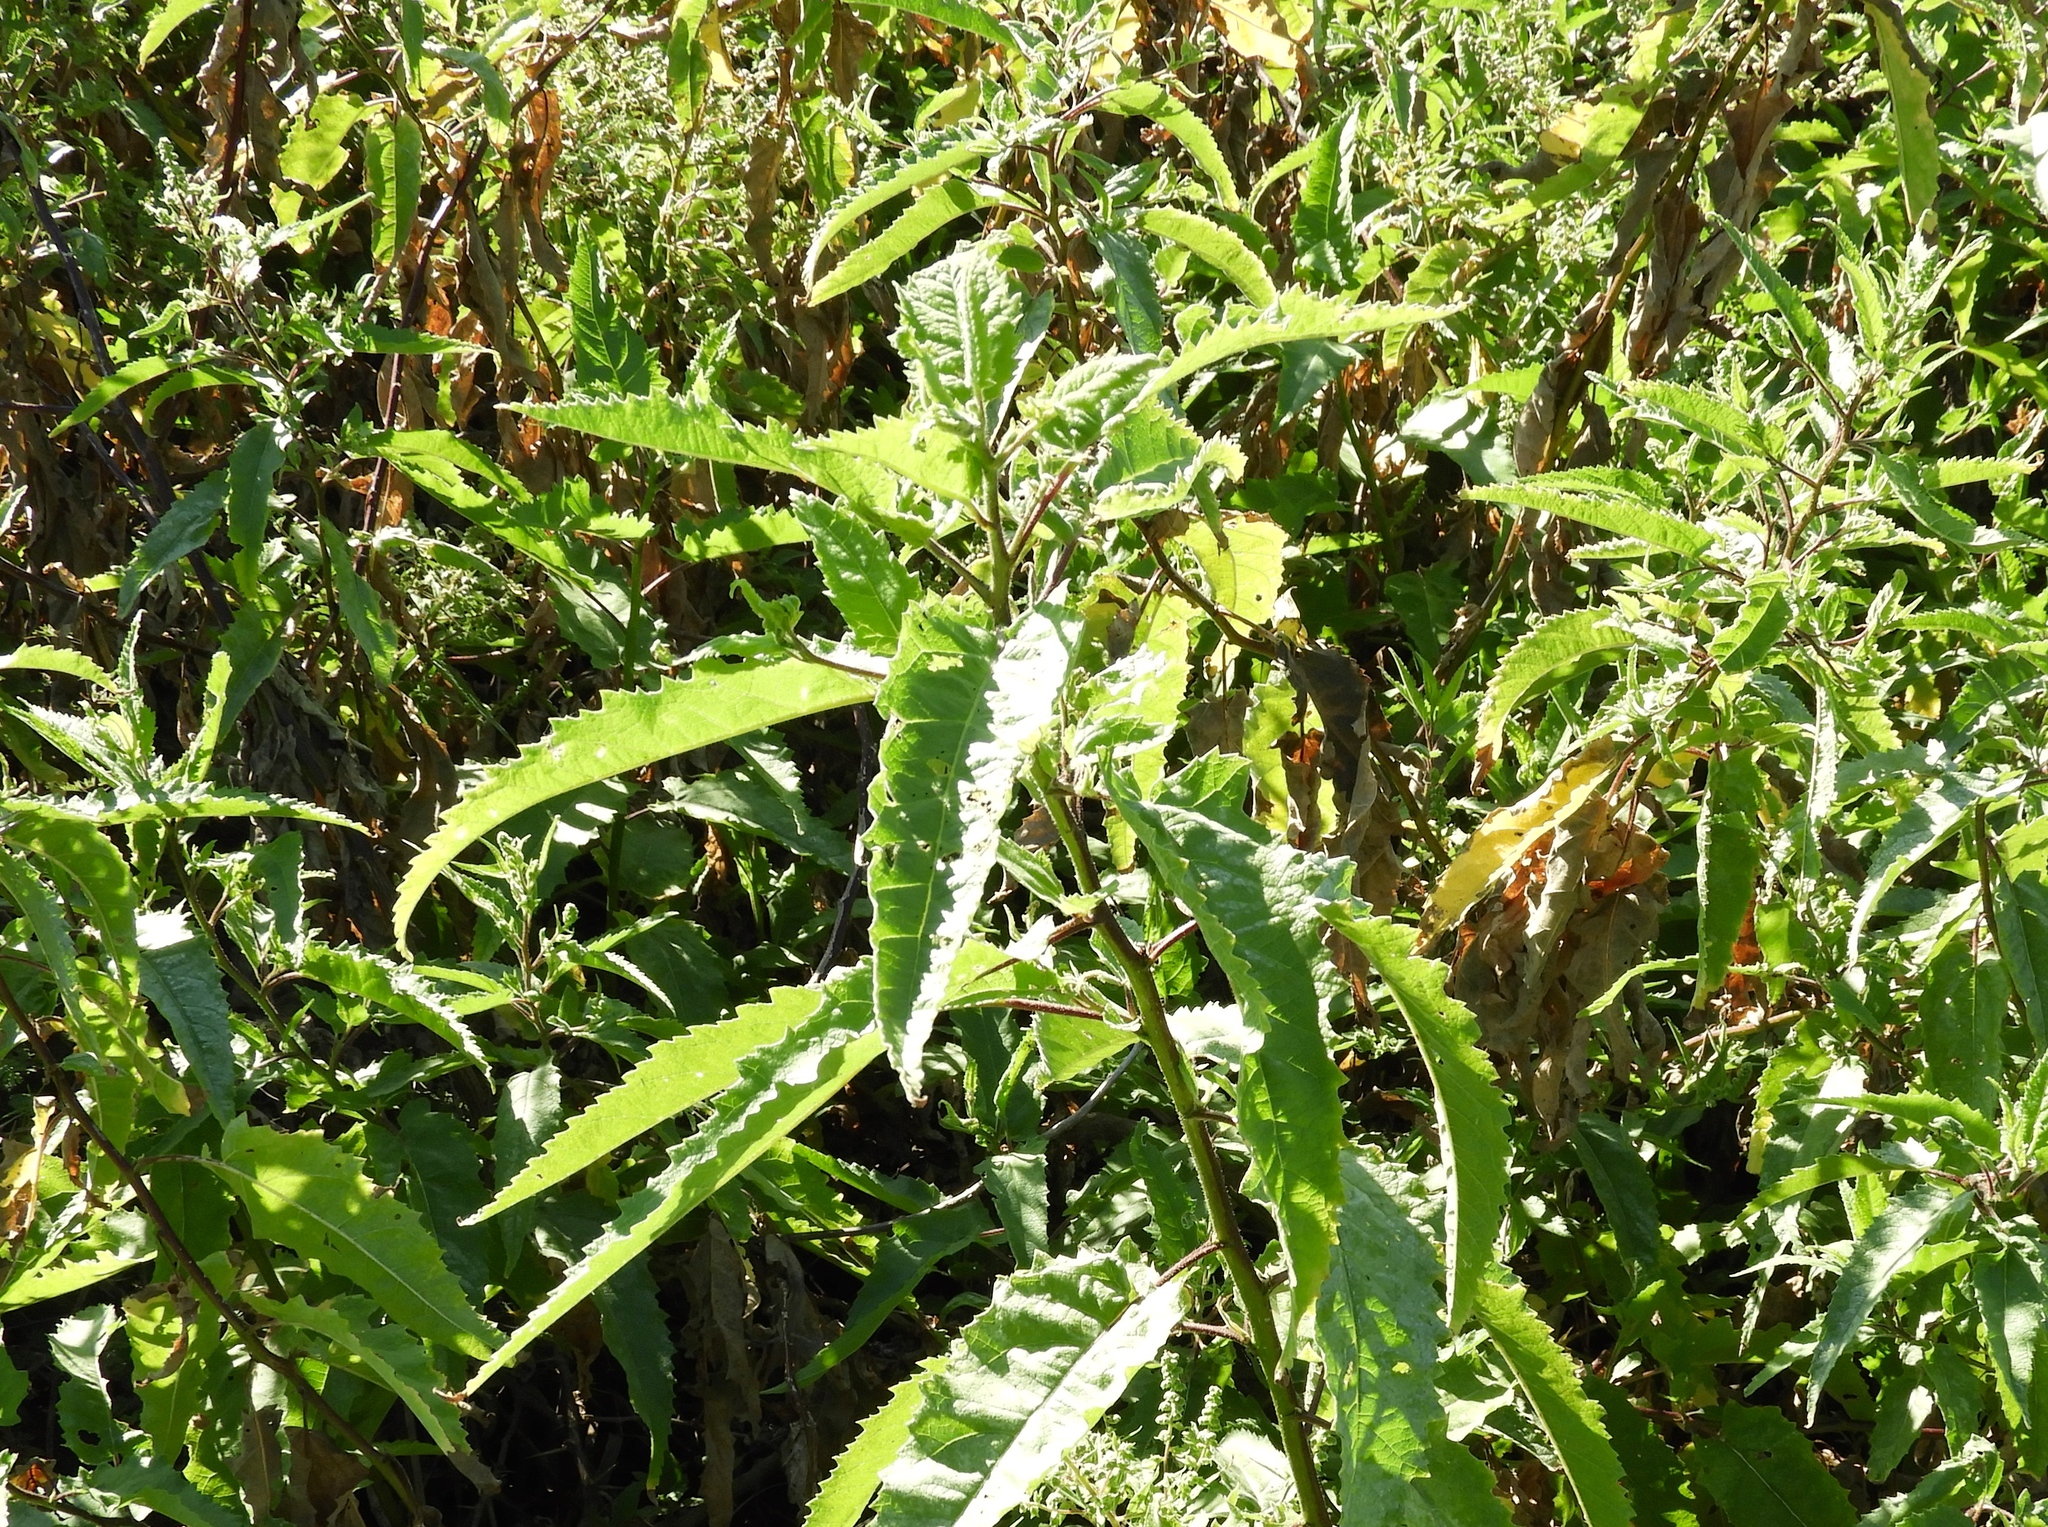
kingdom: Plantae
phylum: Tracheophyta
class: Magnoliopsida
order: Asterales
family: Asteraceae
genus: Ambrosia
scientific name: Ambrosia ambrosioides
